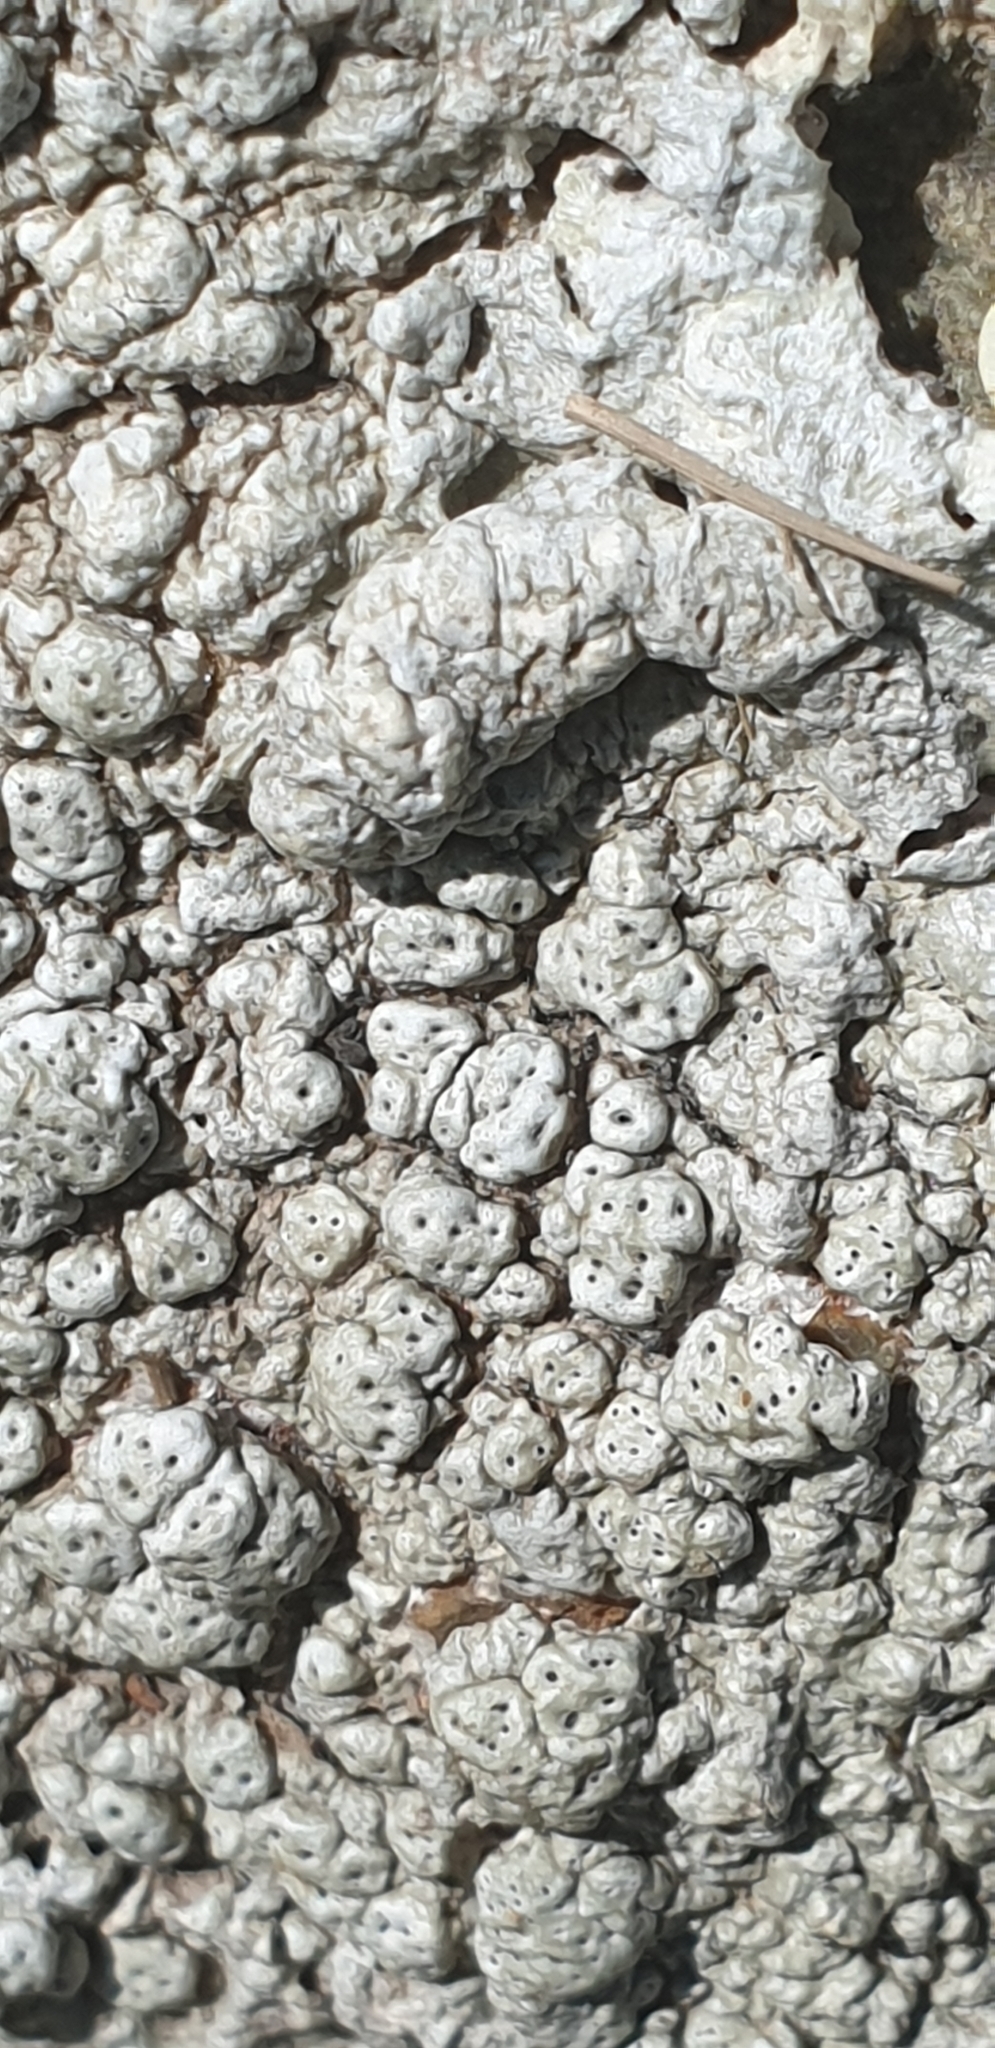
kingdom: Fungi
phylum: Ascomycota
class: Lecanoromycetes
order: Pertusariales
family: Pertusariaceae
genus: Pertusaria
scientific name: Pertusaria pertusa
